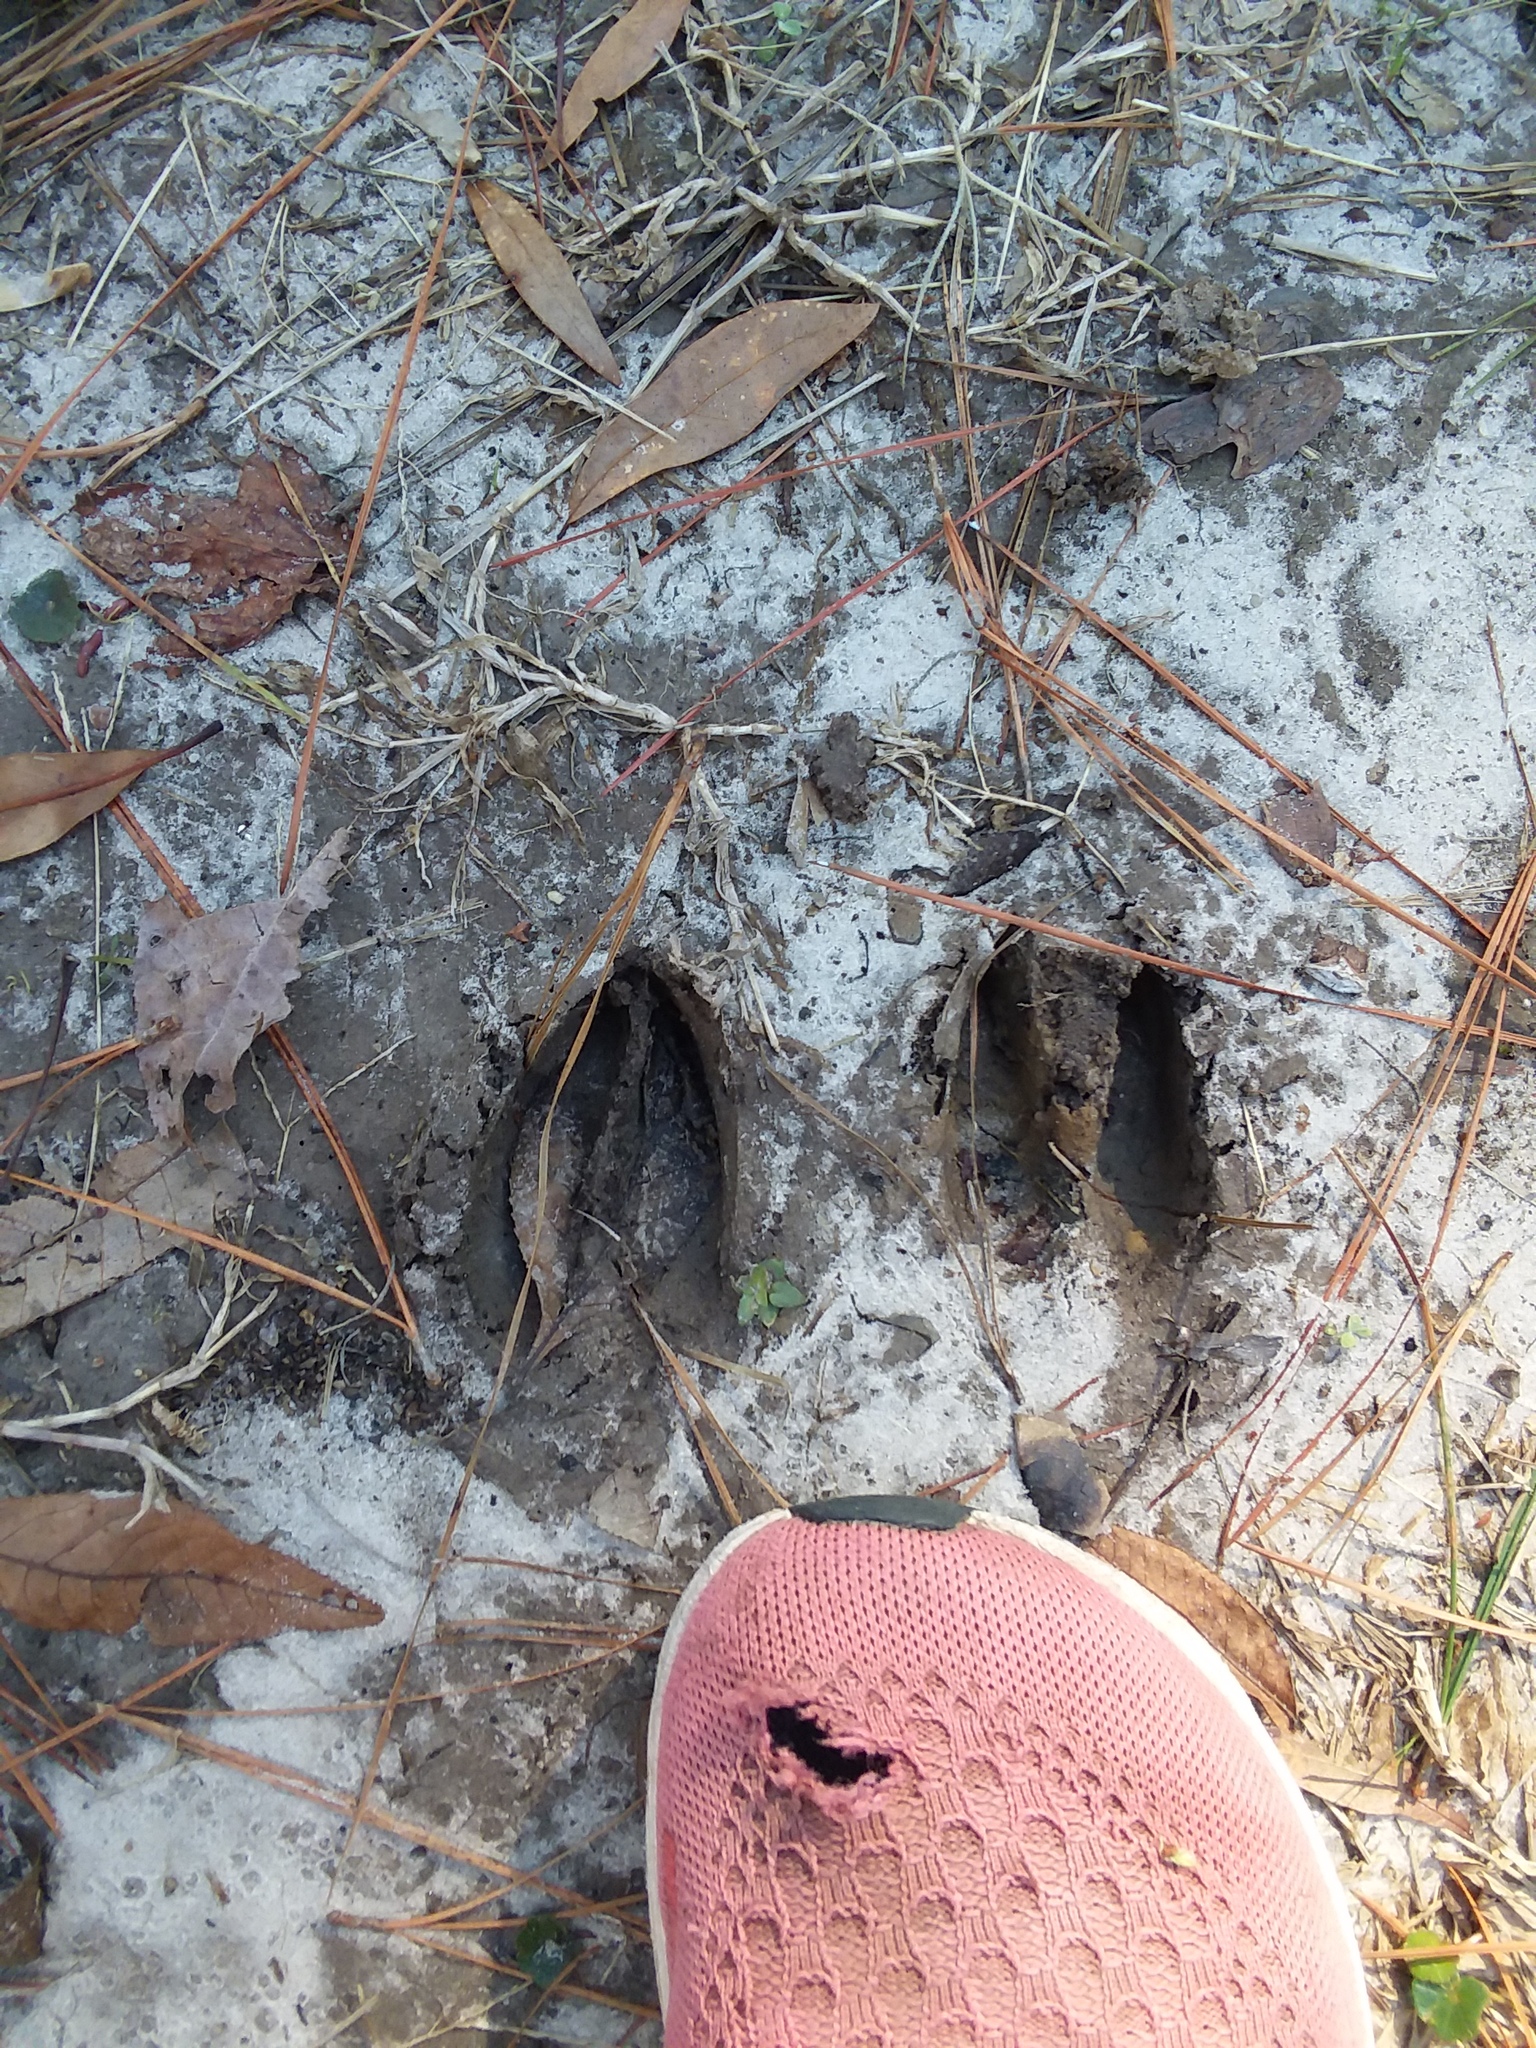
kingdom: Animalia
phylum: Chordata
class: Mammalia
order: Artiodactyla
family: Cervidae
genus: Odocoileus
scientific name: Odocoileus virginianus
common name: White-tailed deer
